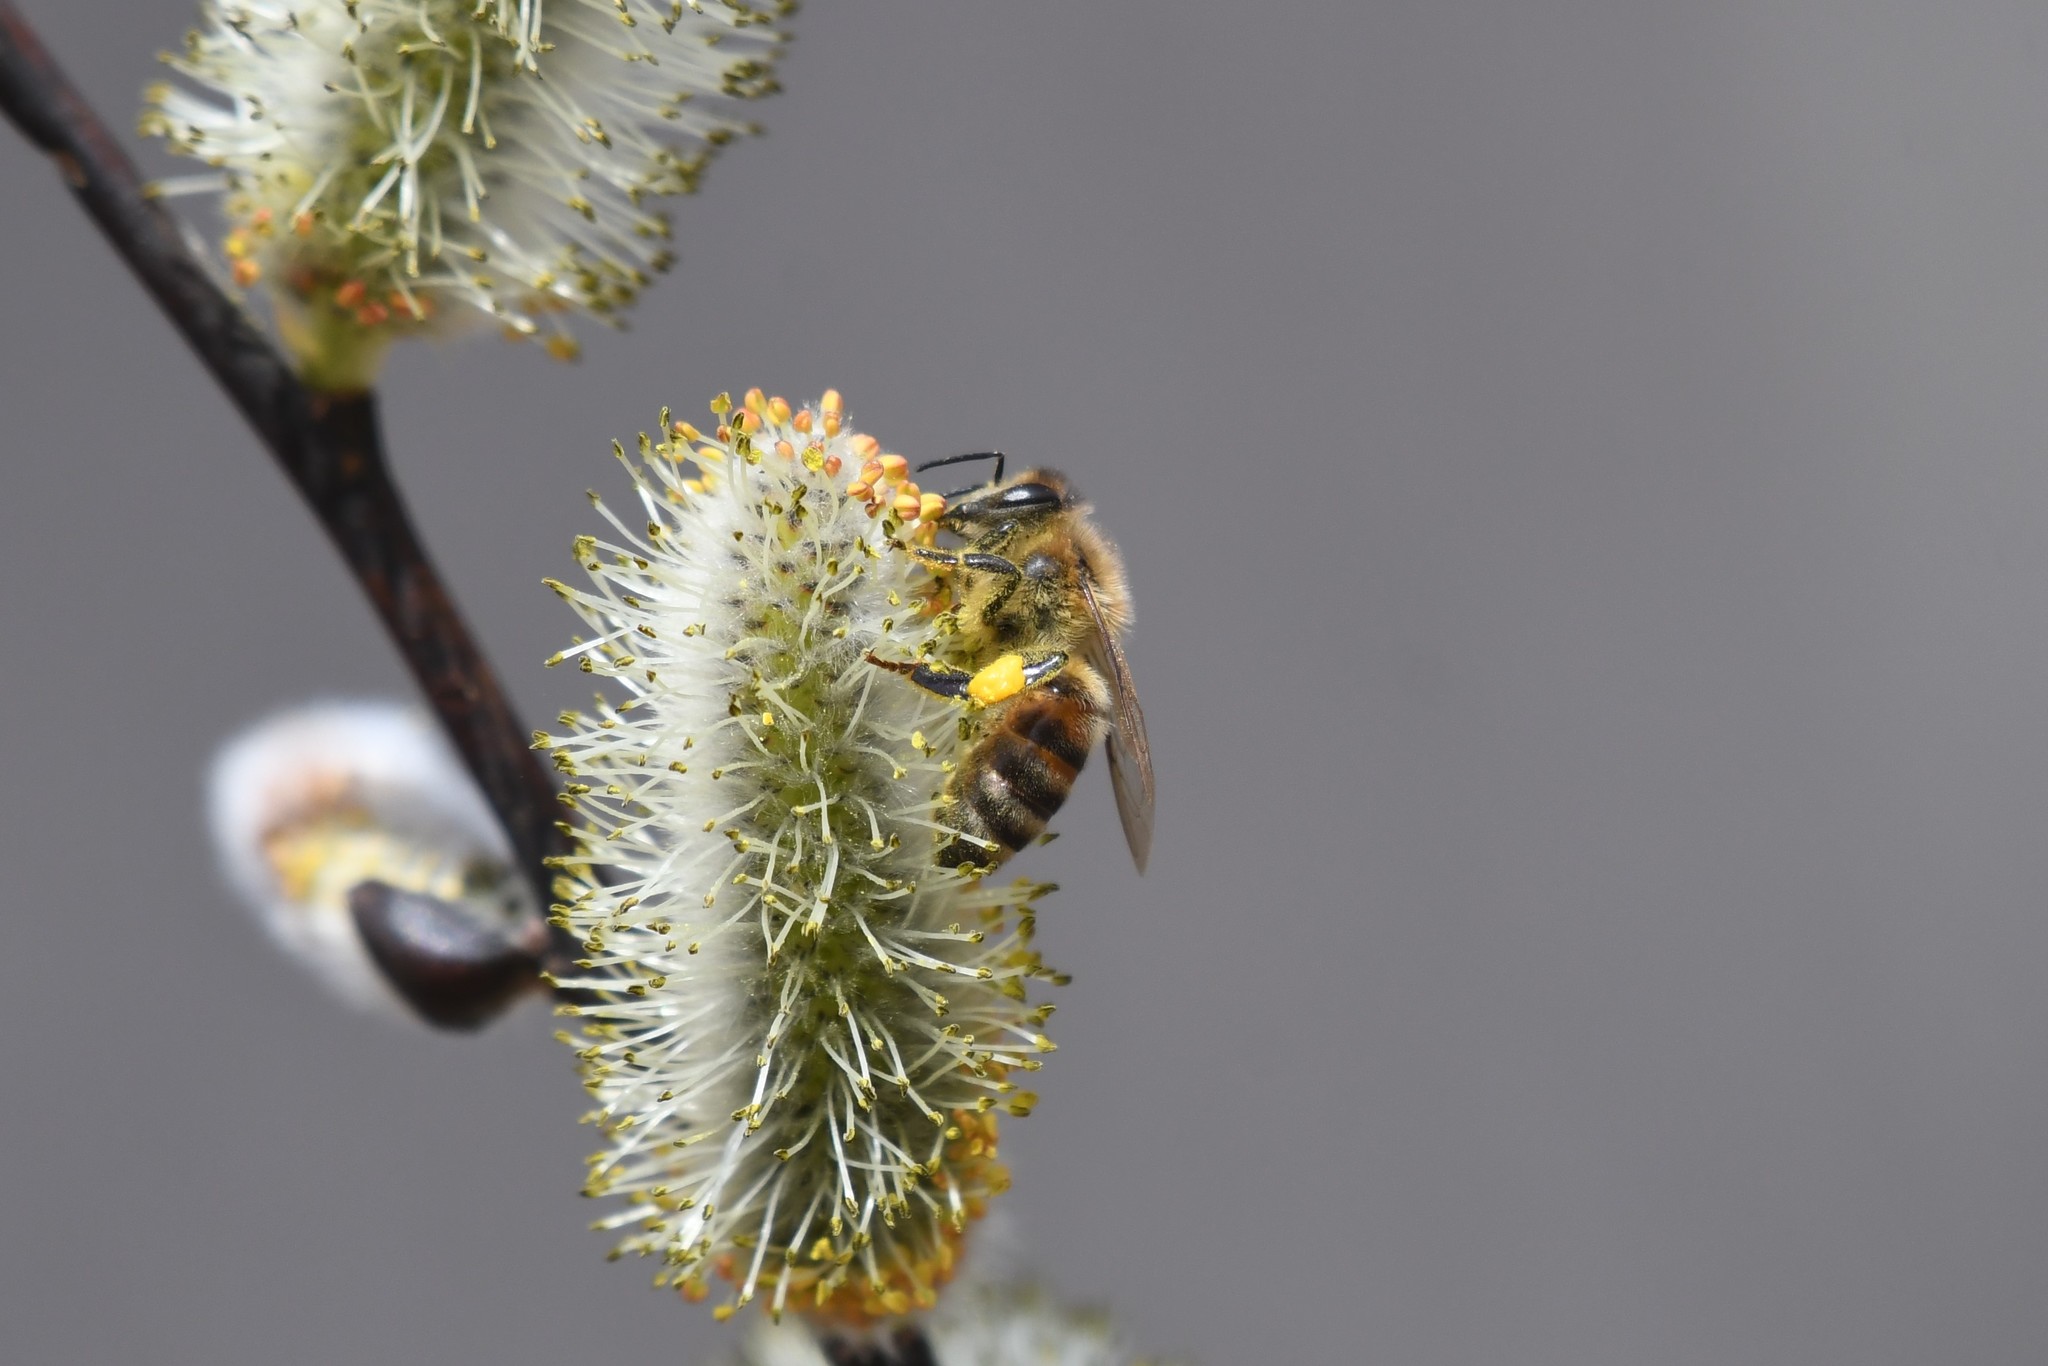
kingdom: Animalia
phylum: Arthropoda
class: Insecta
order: Hymenoptera
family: Apidae
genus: Apis
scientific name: Apis mellifera
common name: Honey bee
